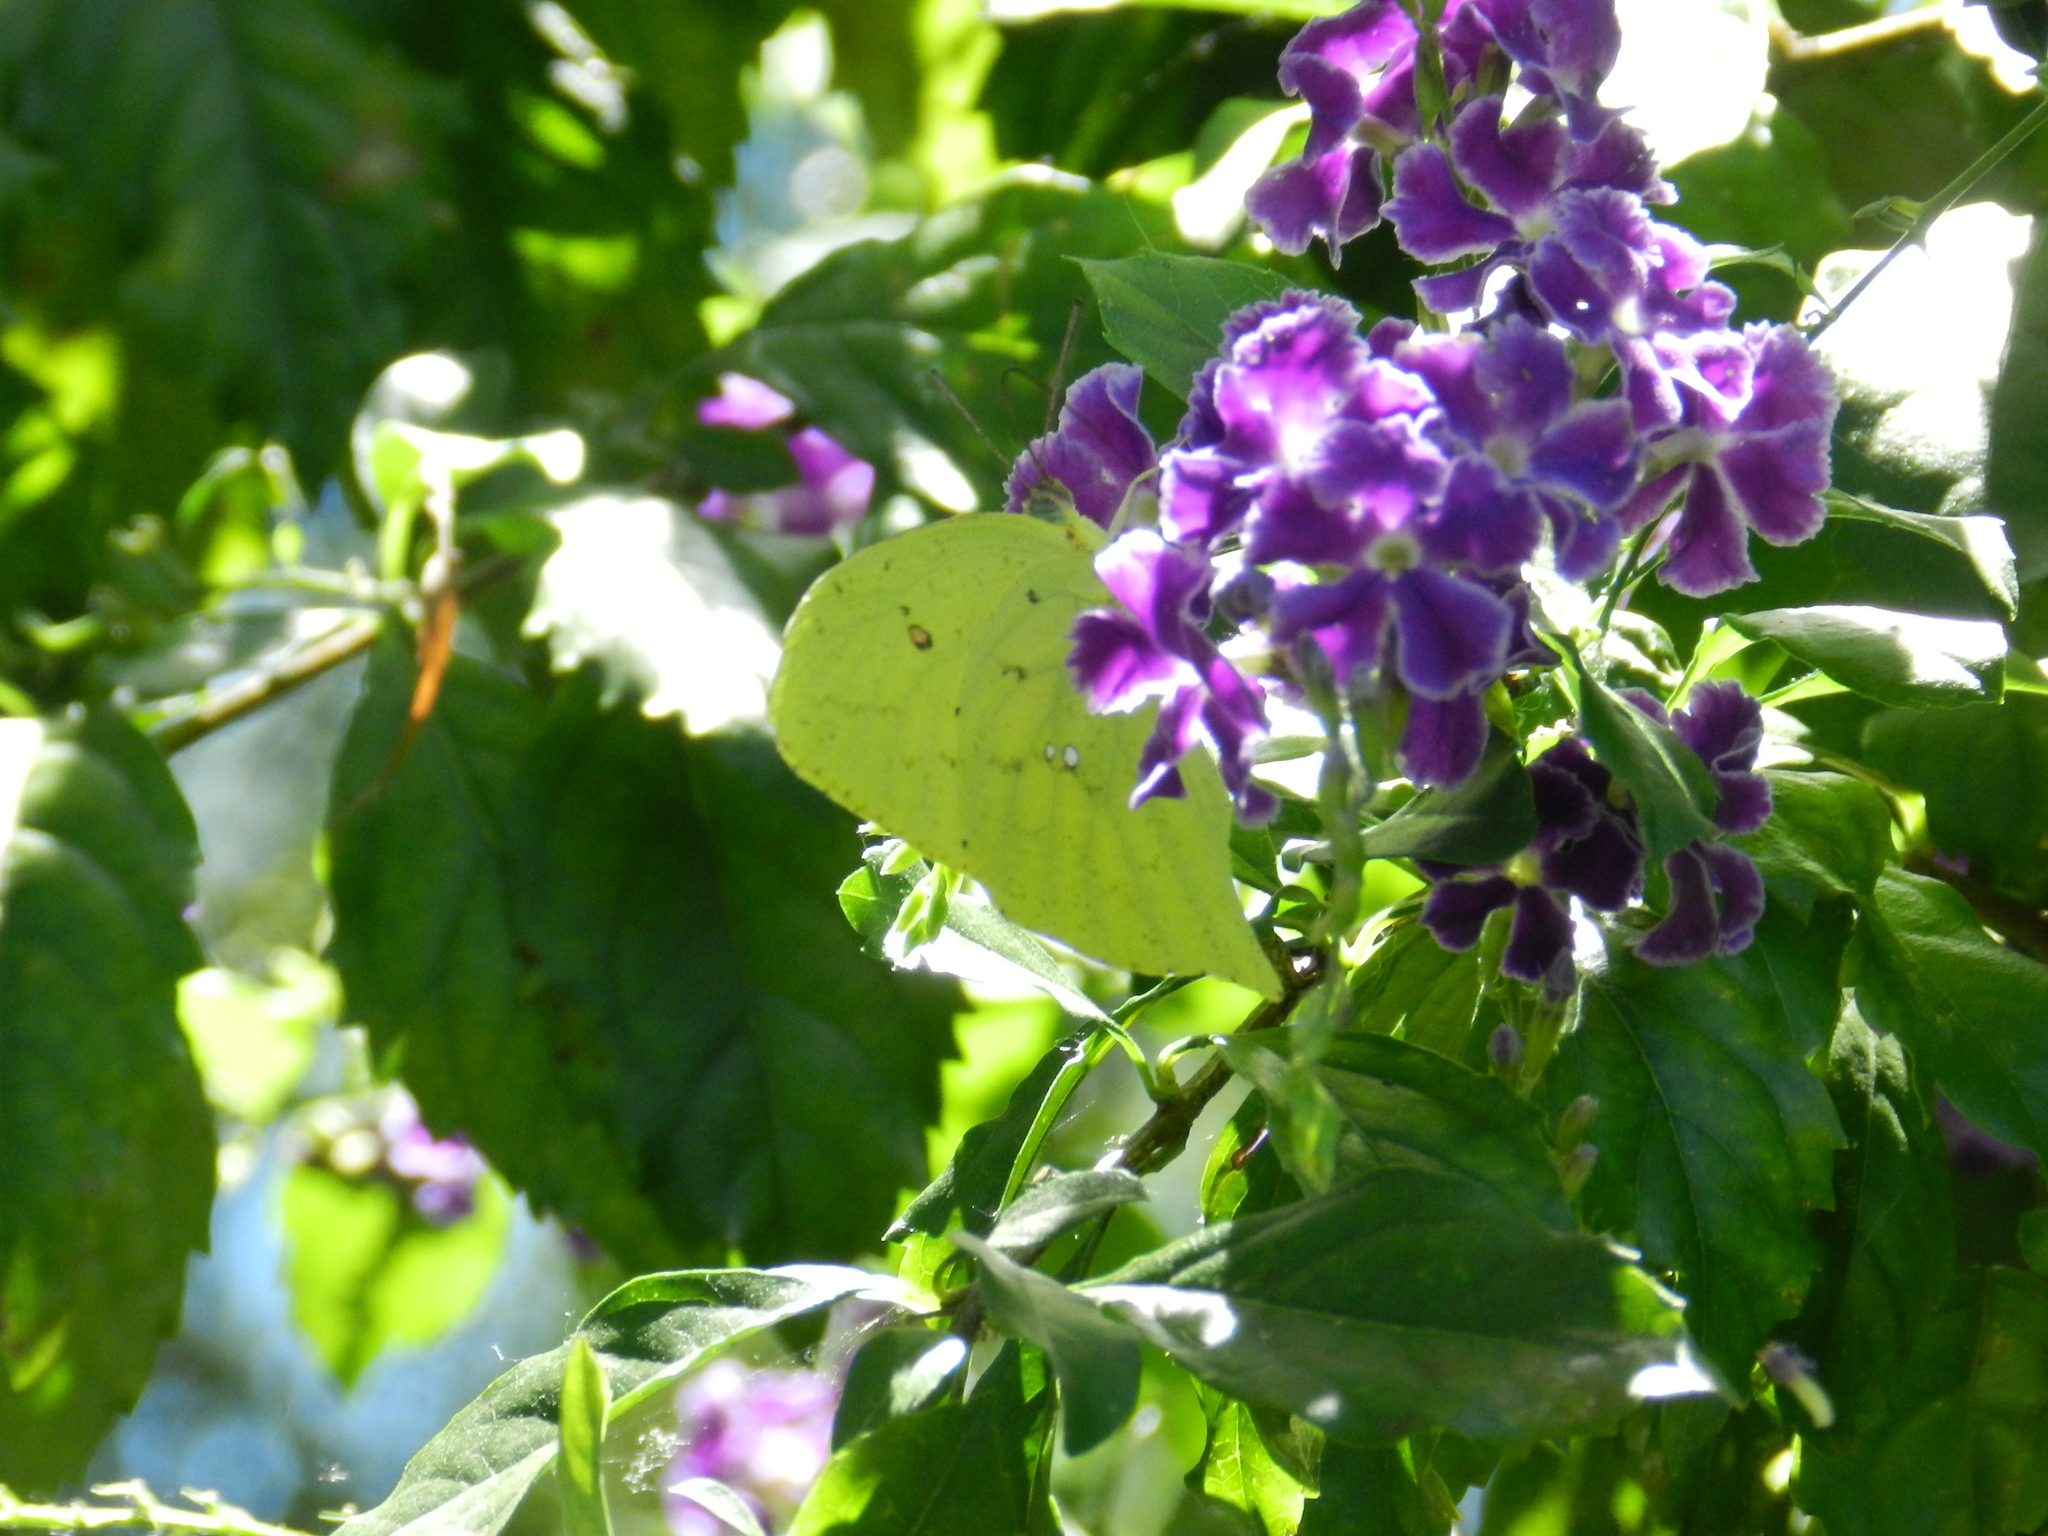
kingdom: Animalia
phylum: Arthropoda
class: Insecta
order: Lepidoptera
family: Pieridae
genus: Phoebis
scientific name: Phoebis neocypris
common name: Tailed sulphur
